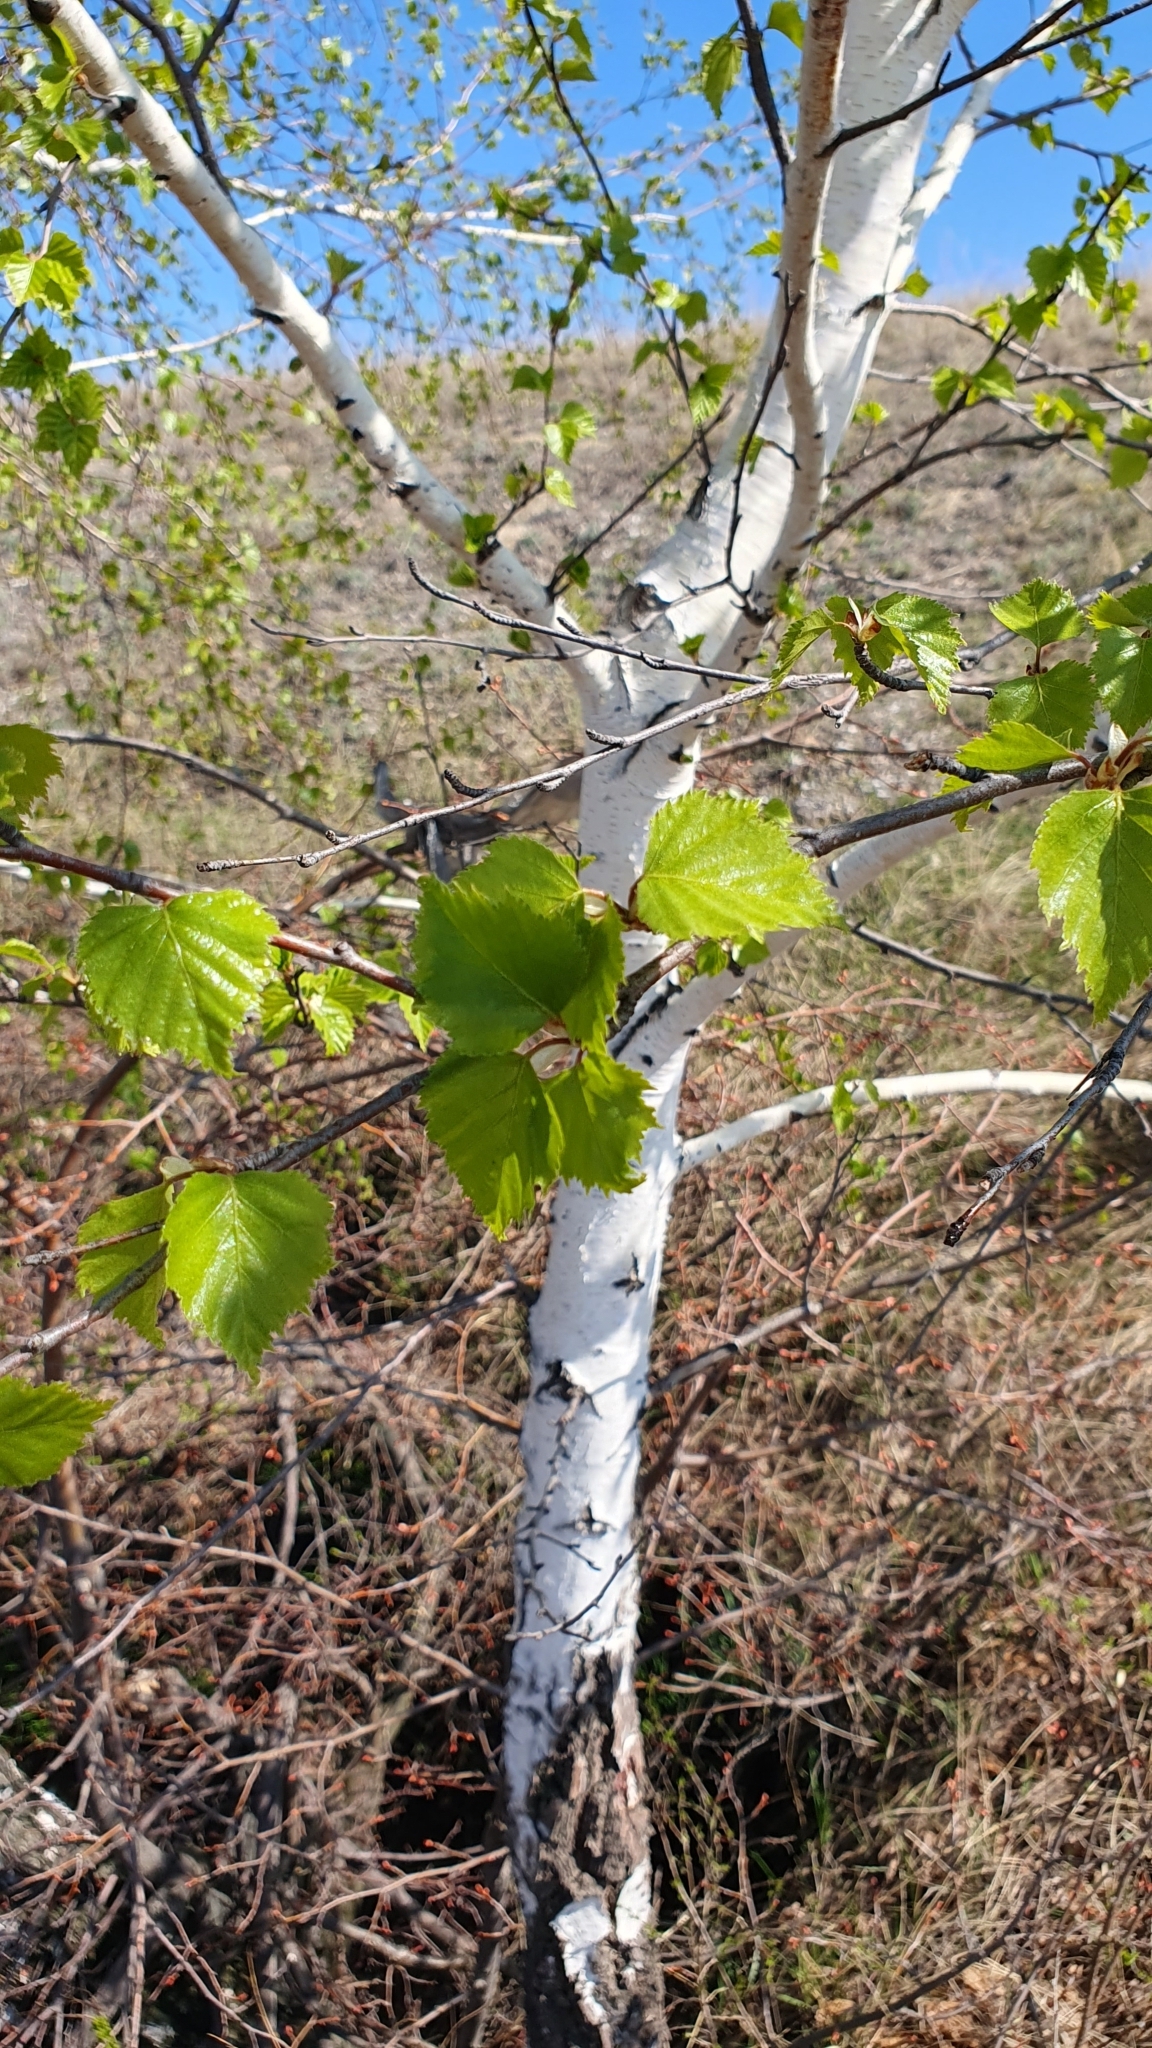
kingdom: Plantae
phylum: Tracheophyta
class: Magnoliopsida
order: Fagales
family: Betulaceae
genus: Betula
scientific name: Betula pendula
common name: Silver birch
